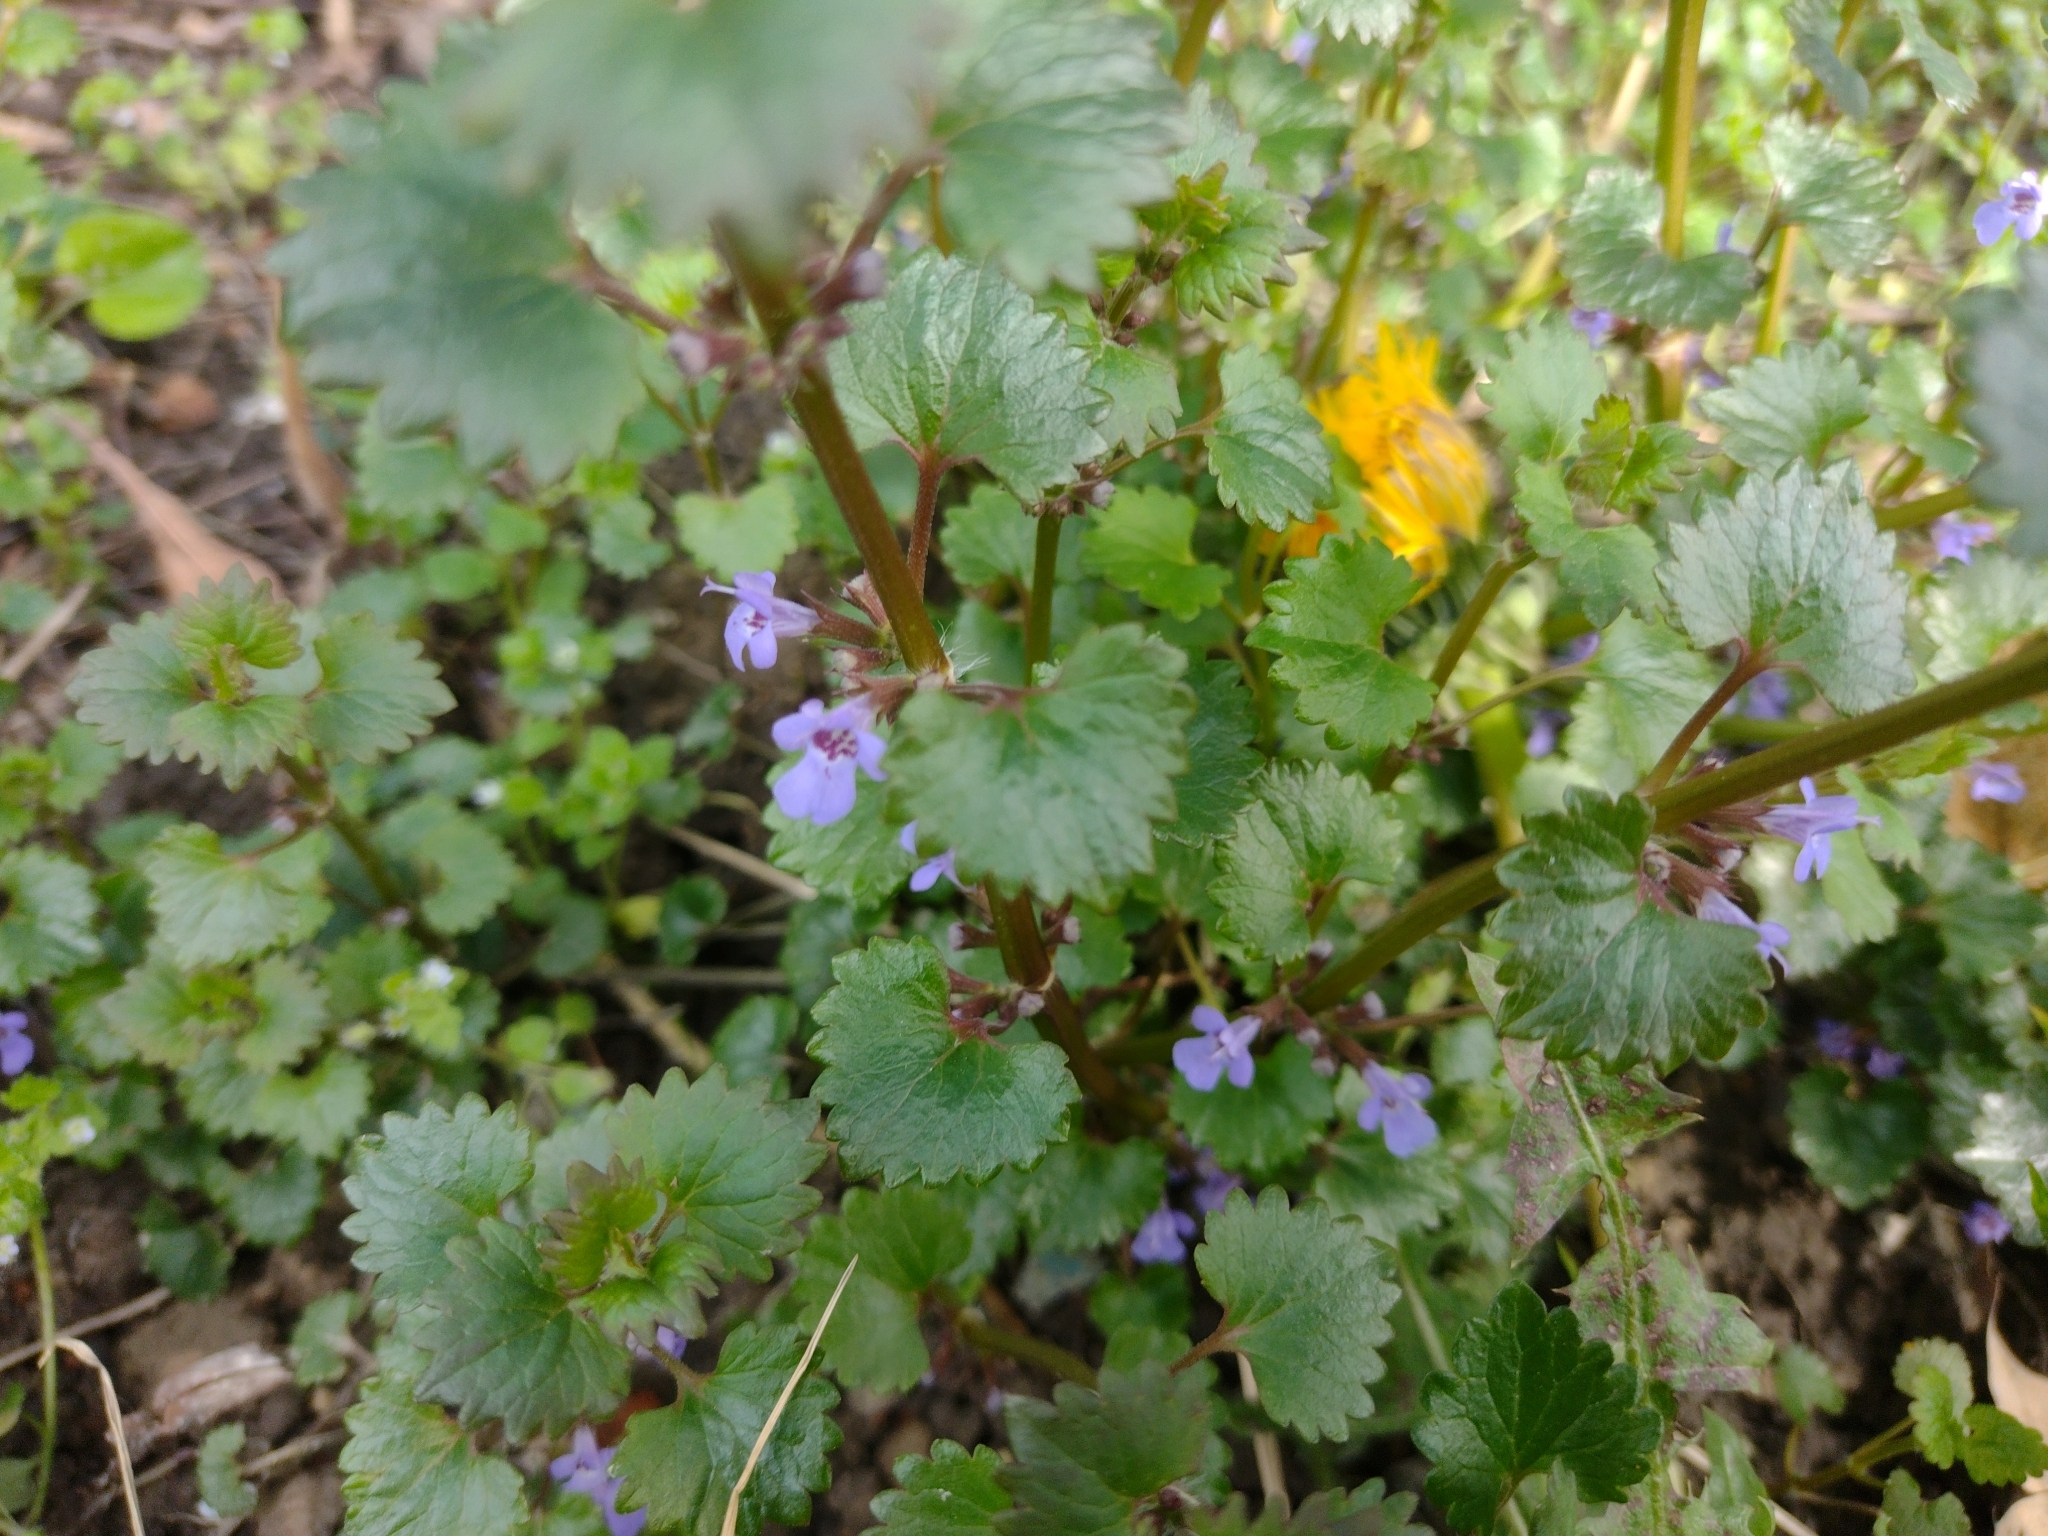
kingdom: Plantae
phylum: Tracheophyta
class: Magnoliopsida
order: Lamiales
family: Lamiaceae
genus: Glechoma
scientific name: Glechoma hederacea
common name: Ground ivy
